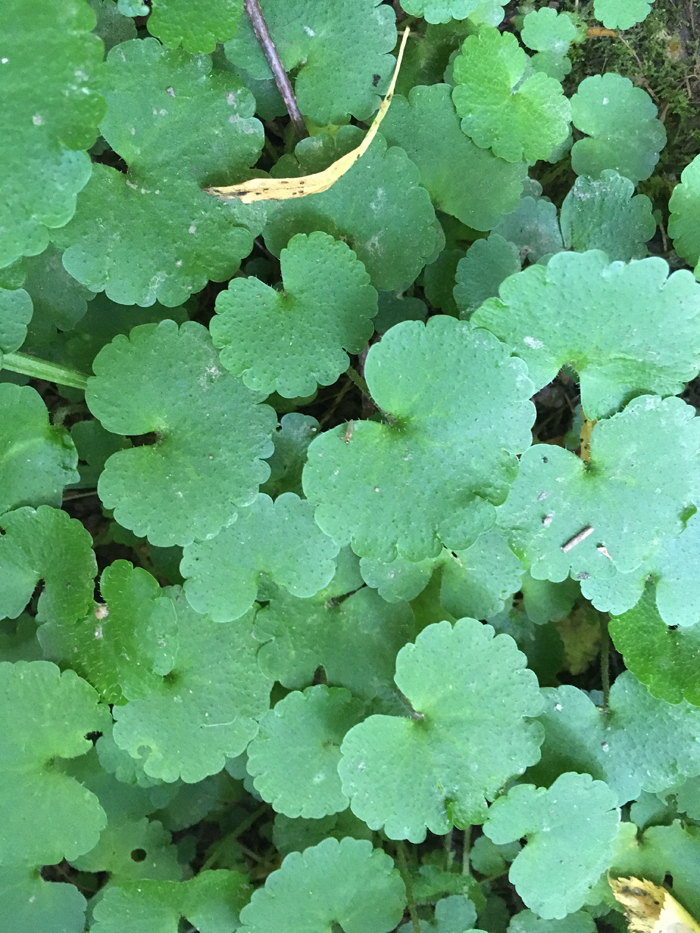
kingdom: Plantae
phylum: Tracheophyta
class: Magnoliopsida
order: Saxifragales
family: Saxifragaceae
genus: Chrysosplenium
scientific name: Chrysosplenium alternifolium
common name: Alternate-leaved golden-saxifrage
